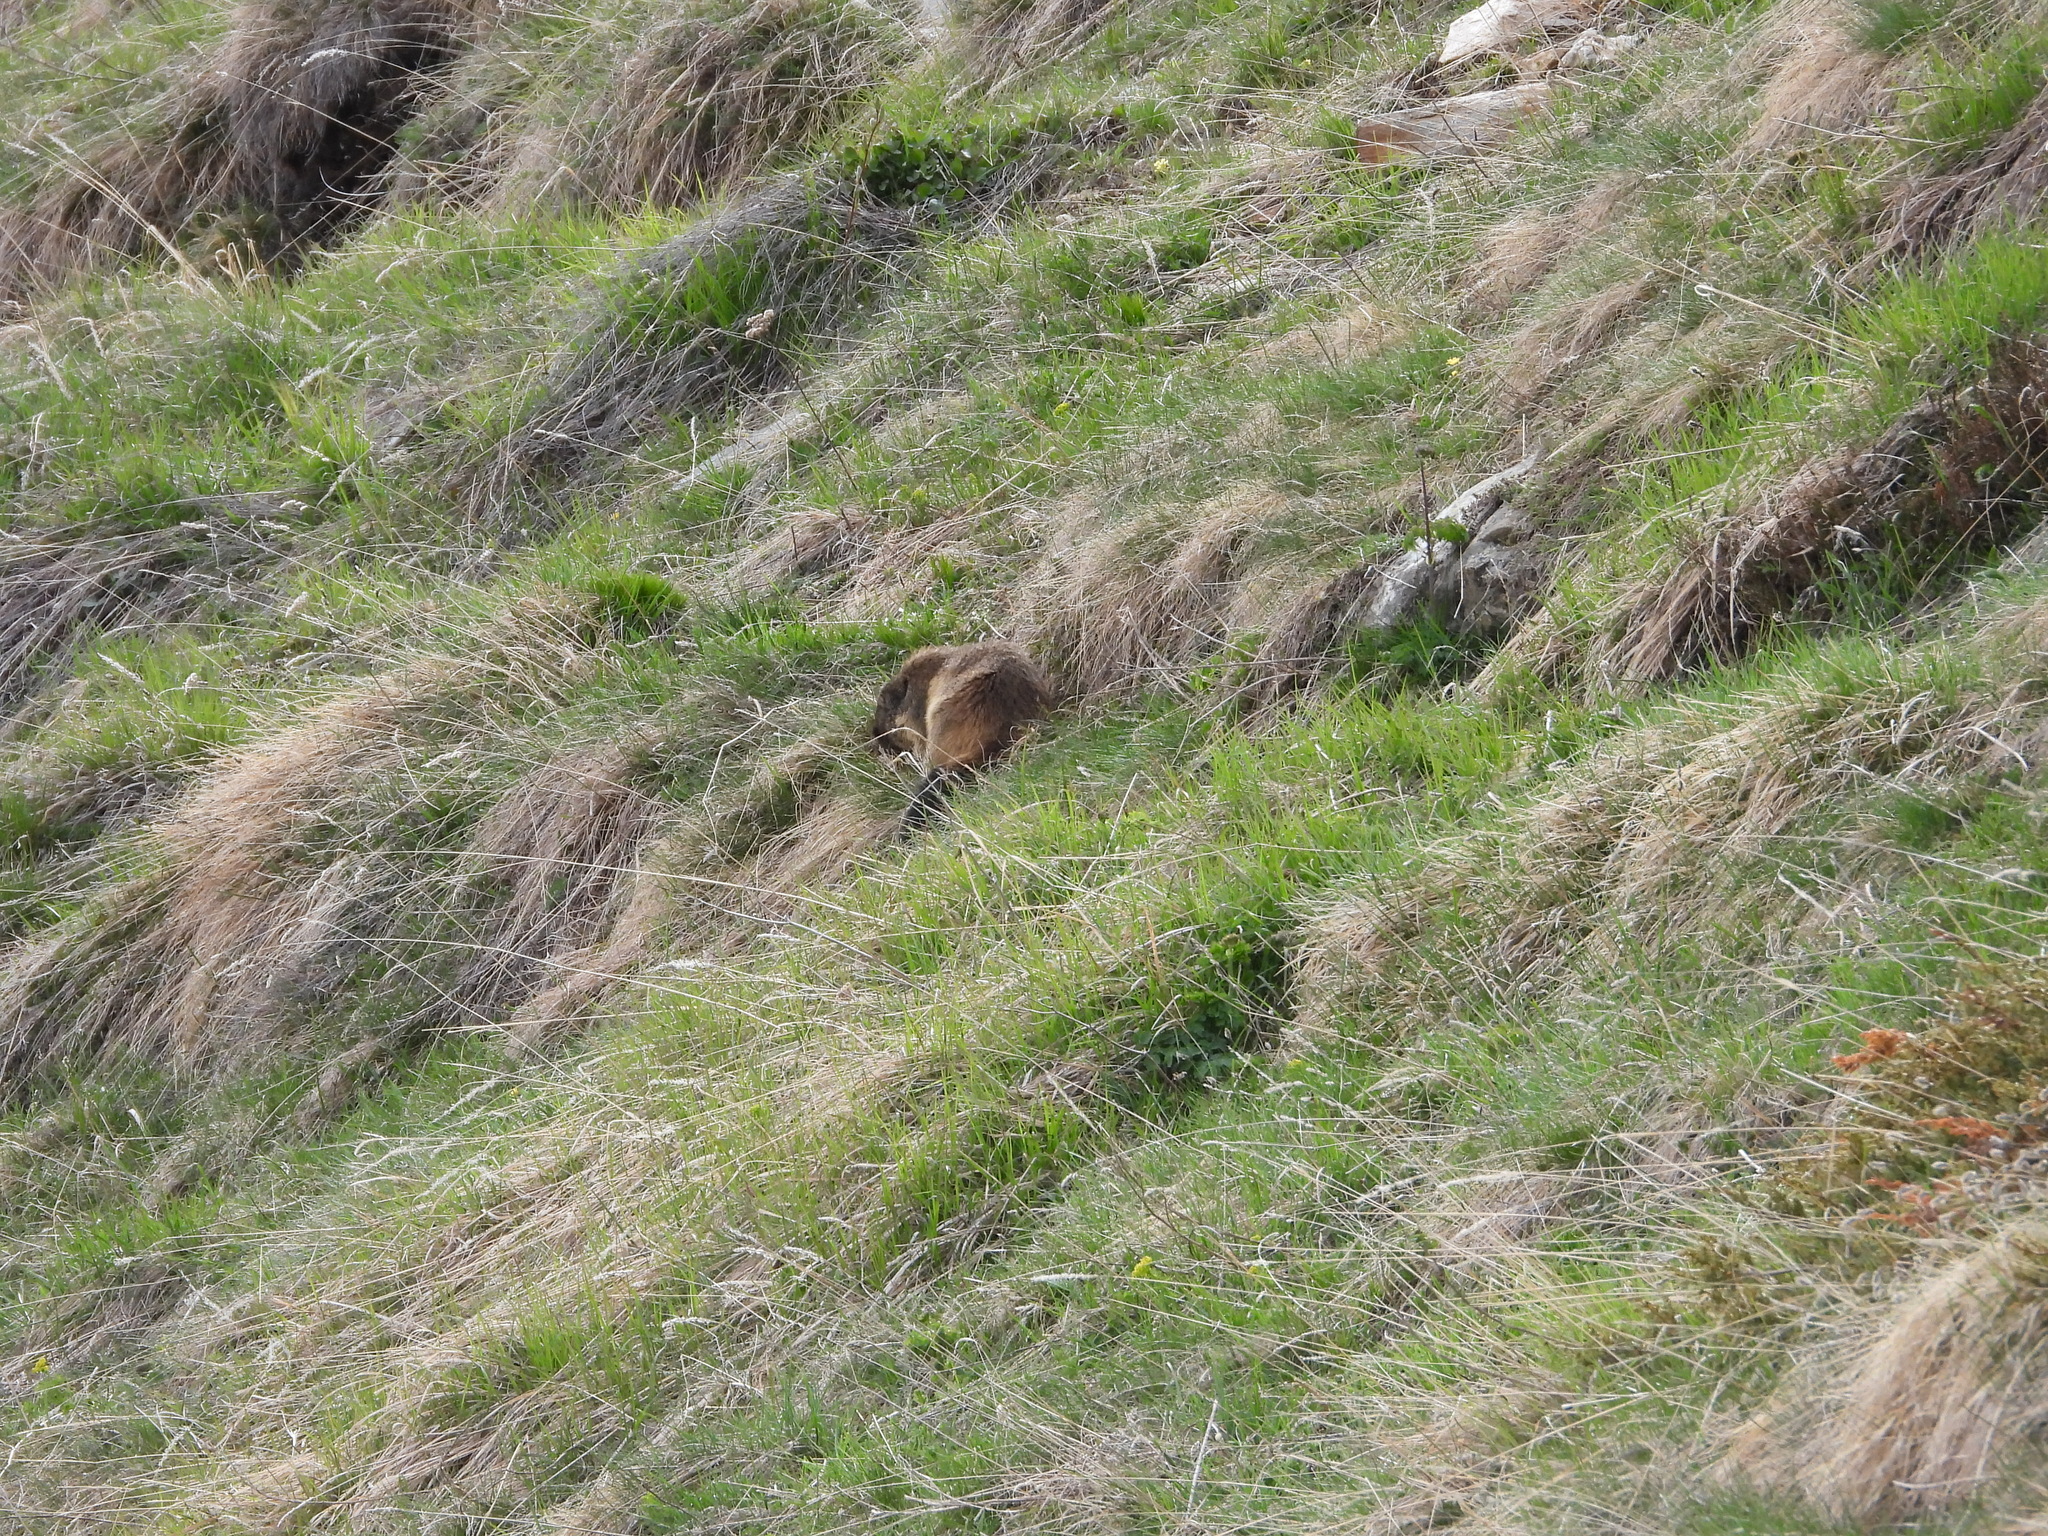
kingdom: Animalia
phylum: Chordata
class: Mammalia
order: Rodentia
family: Sciuridae
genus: Marmota
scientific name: Marmota marmota
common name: Alpine marmot
